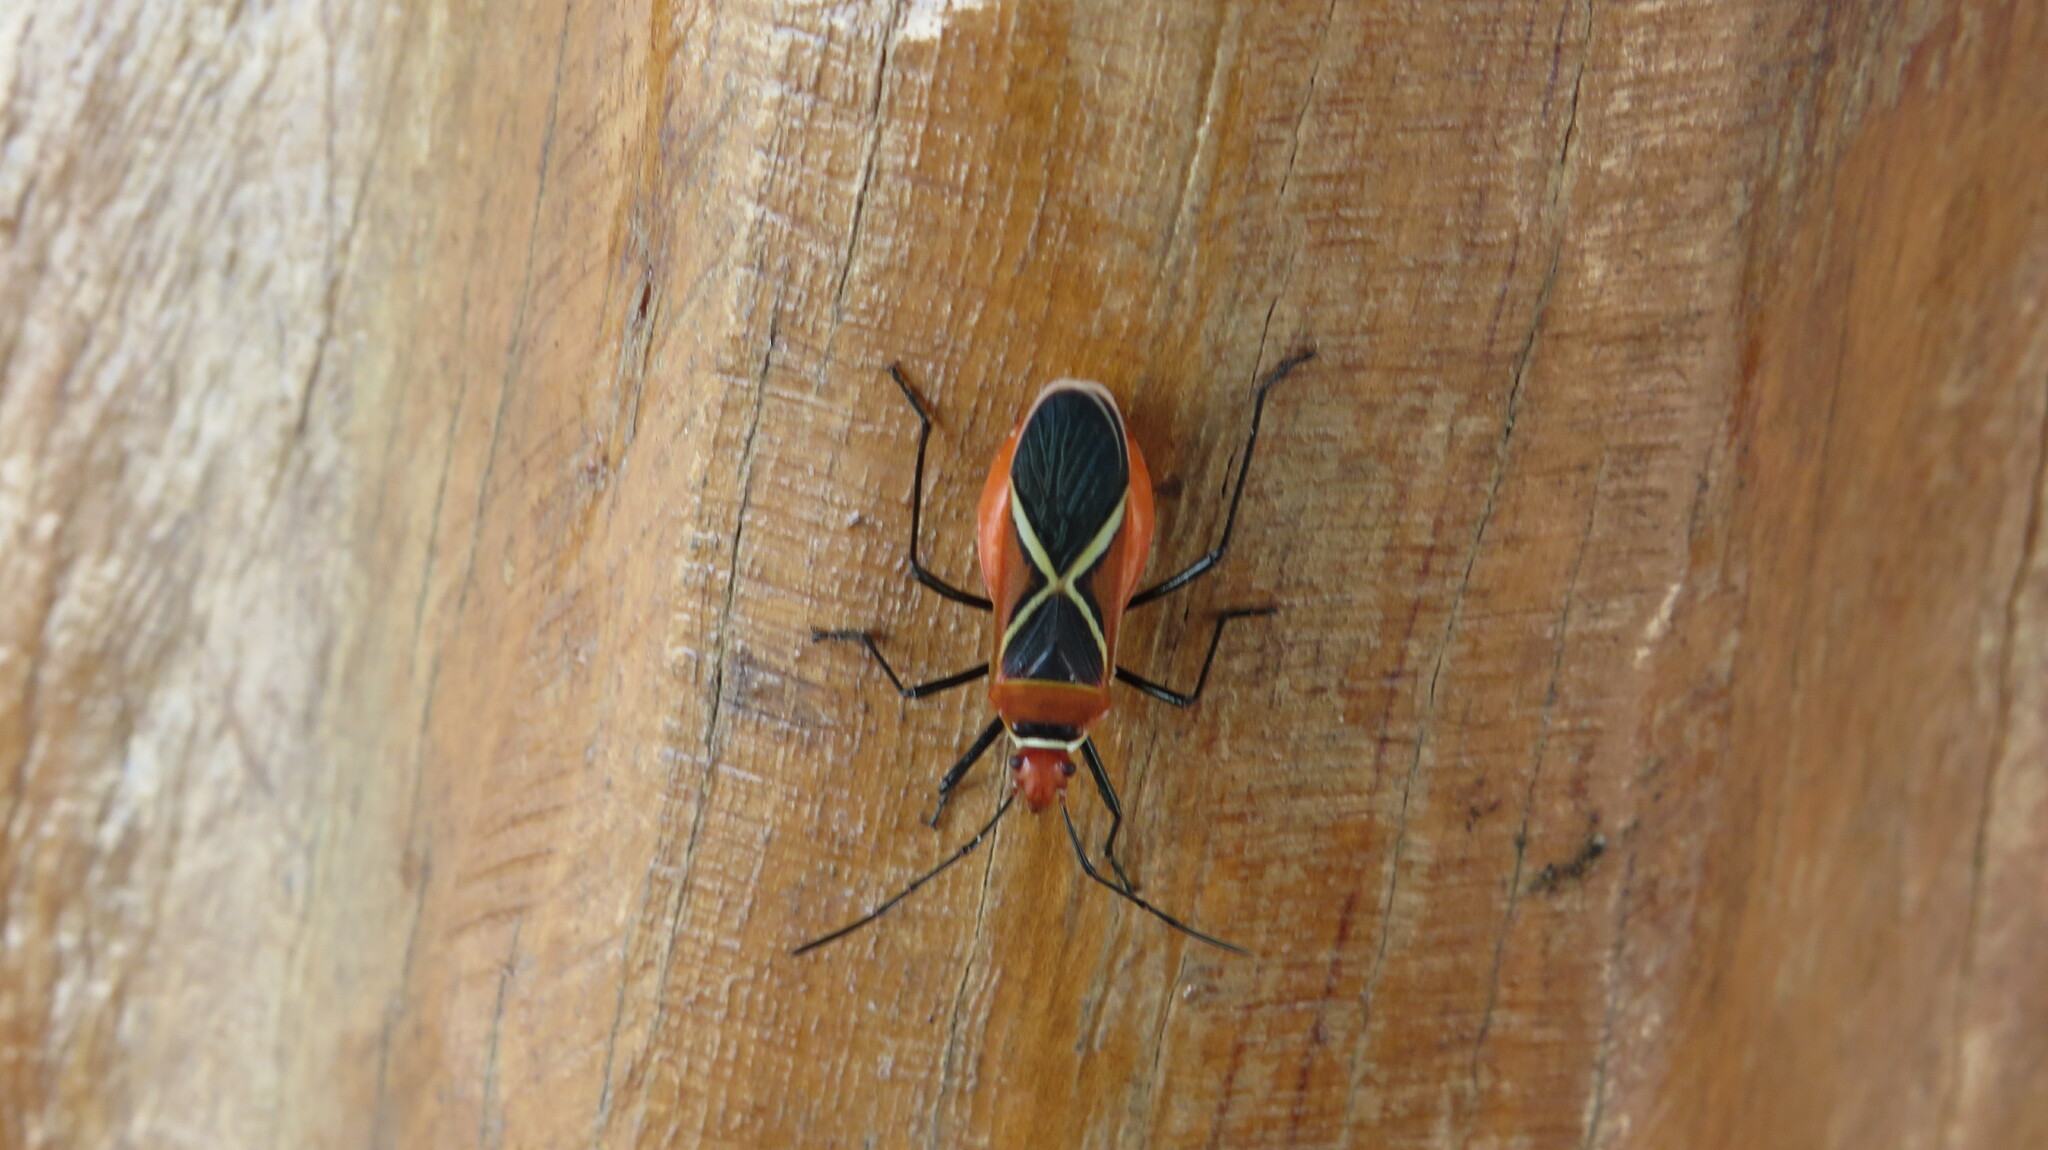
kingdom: Animalia
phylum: Arthropoda
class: Insecta
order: Hemiptera
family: Pyrrhocoridae
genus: Dysdercus
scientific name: Dysdercus decussatus
